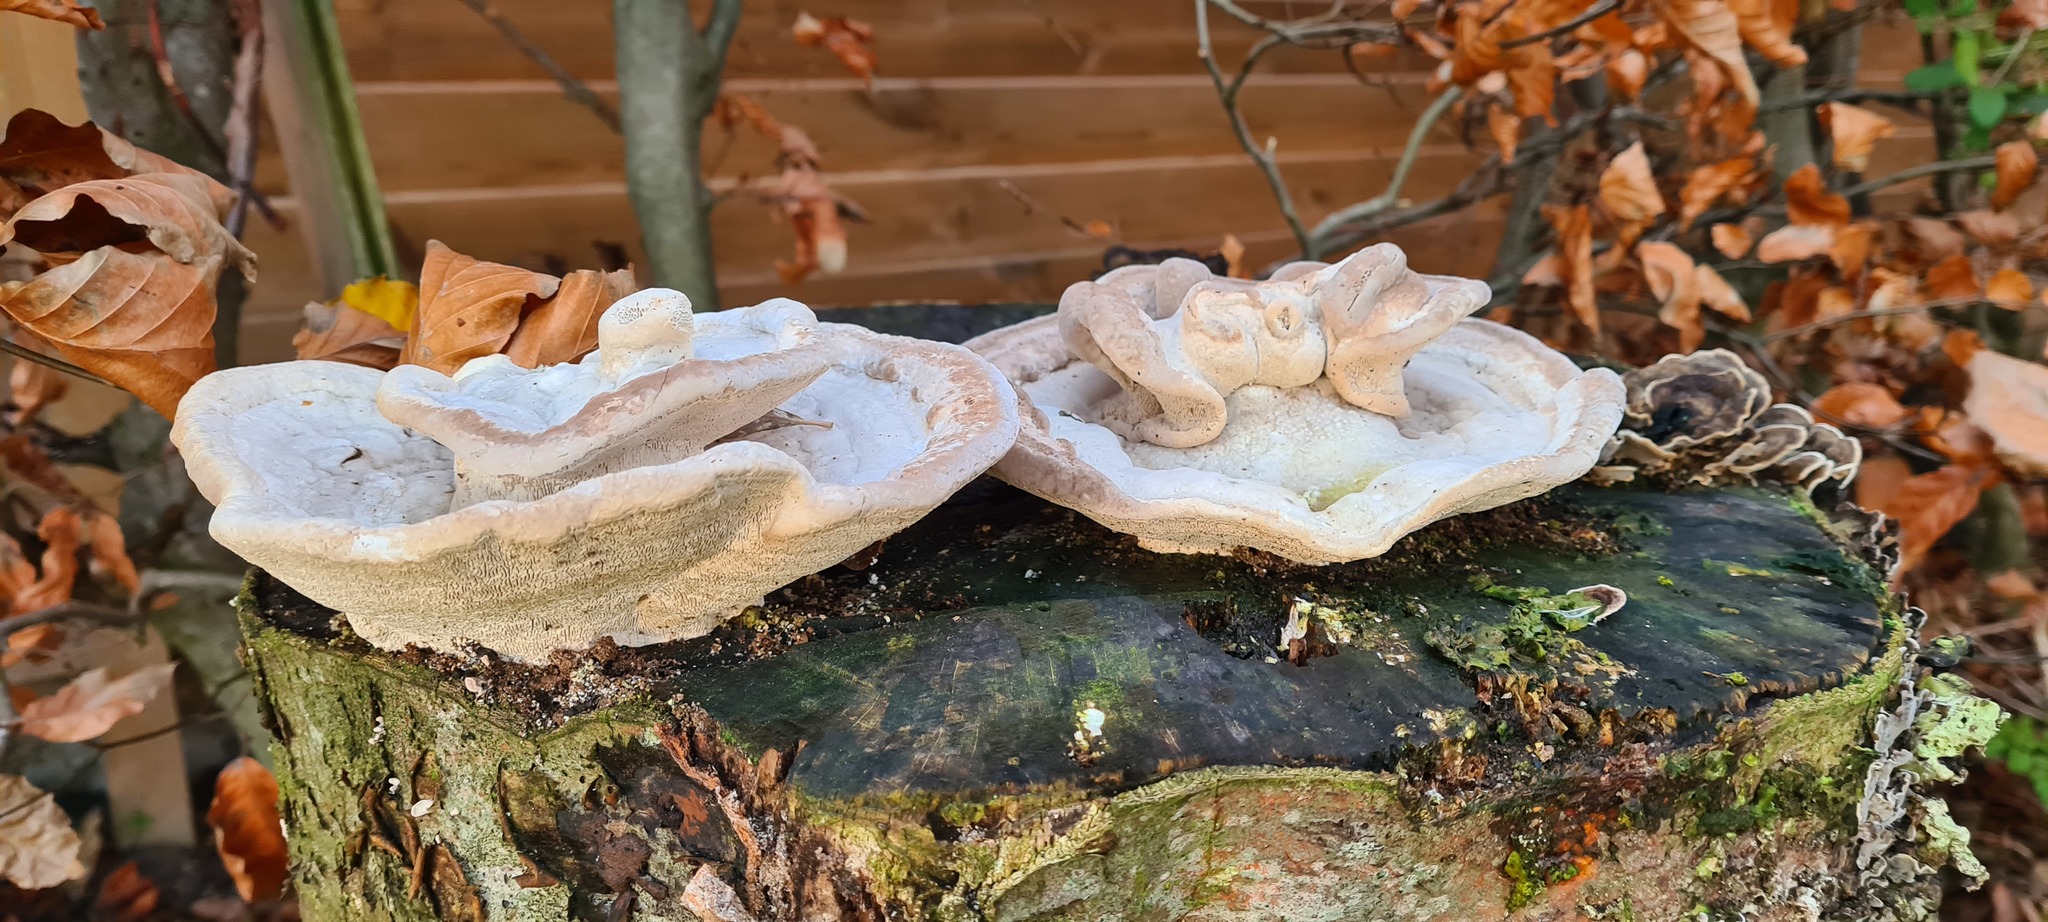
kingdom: Fungi
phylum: Basidiomycota
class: Agaricomycetes
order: Polyporales
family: Polyporaceae
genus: Trametes
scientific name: Trametes gibbosa
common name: Lumpy bracket
